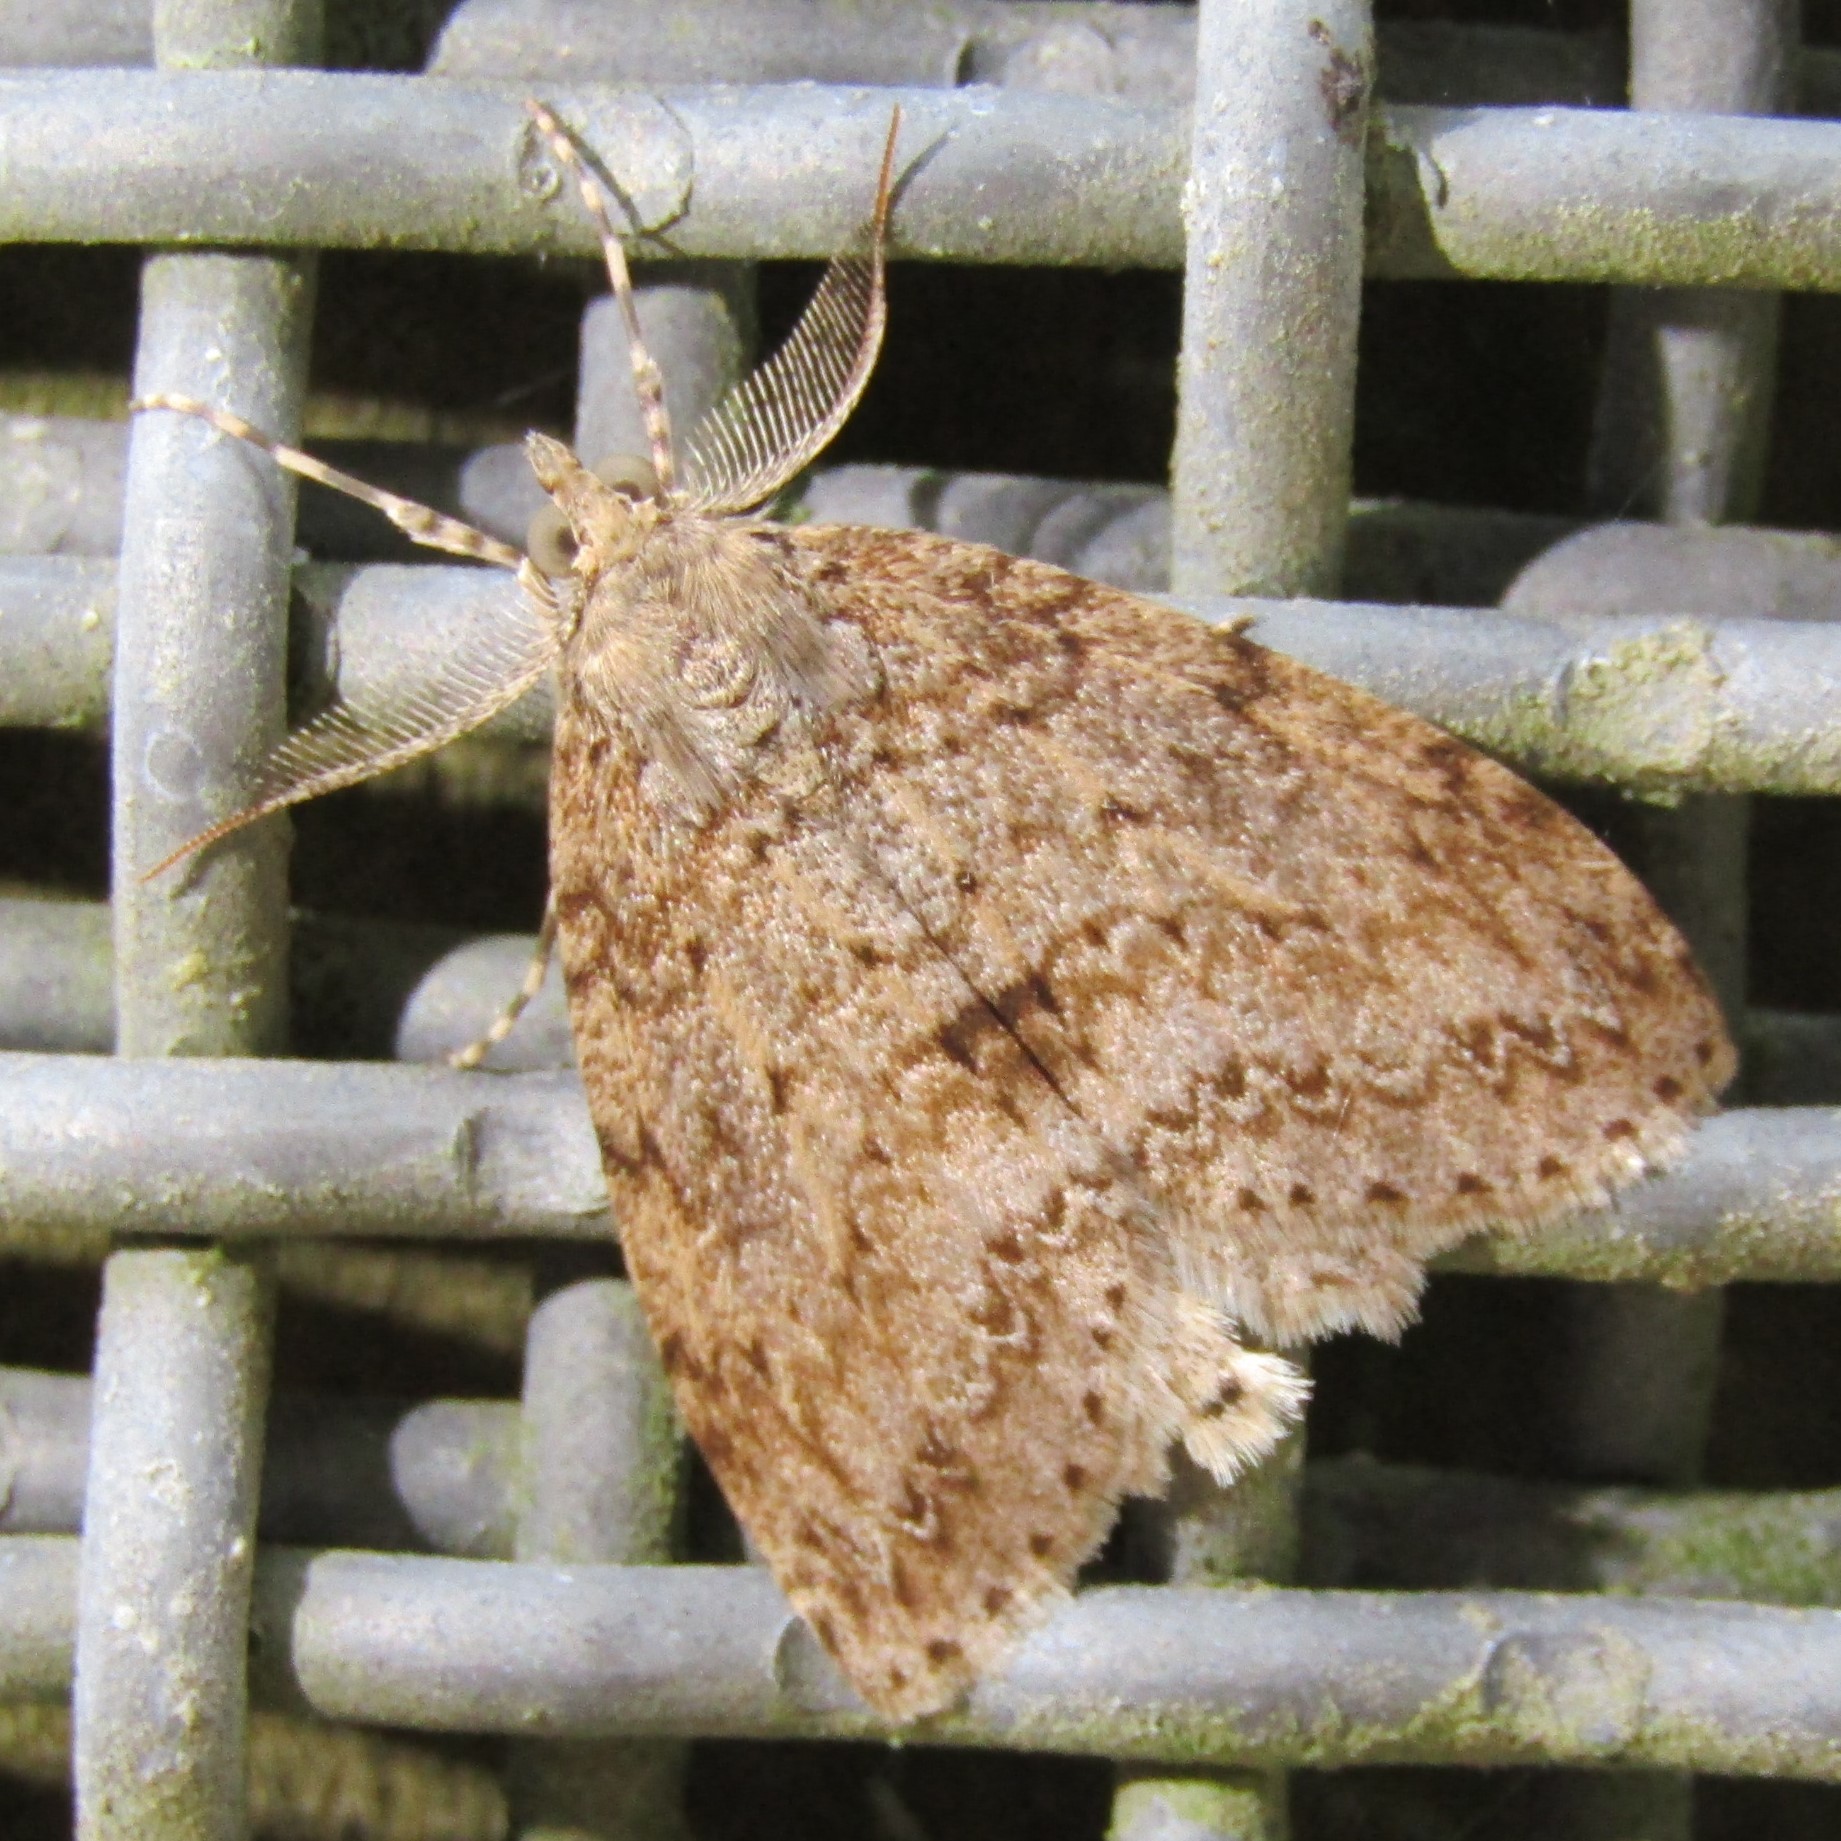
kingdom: Animalia
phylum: Arthropoda
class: Insecta
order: Lepidoptera
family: Geometridae
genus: Pseudocoremia
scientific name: Pseudocoremia fenerata
